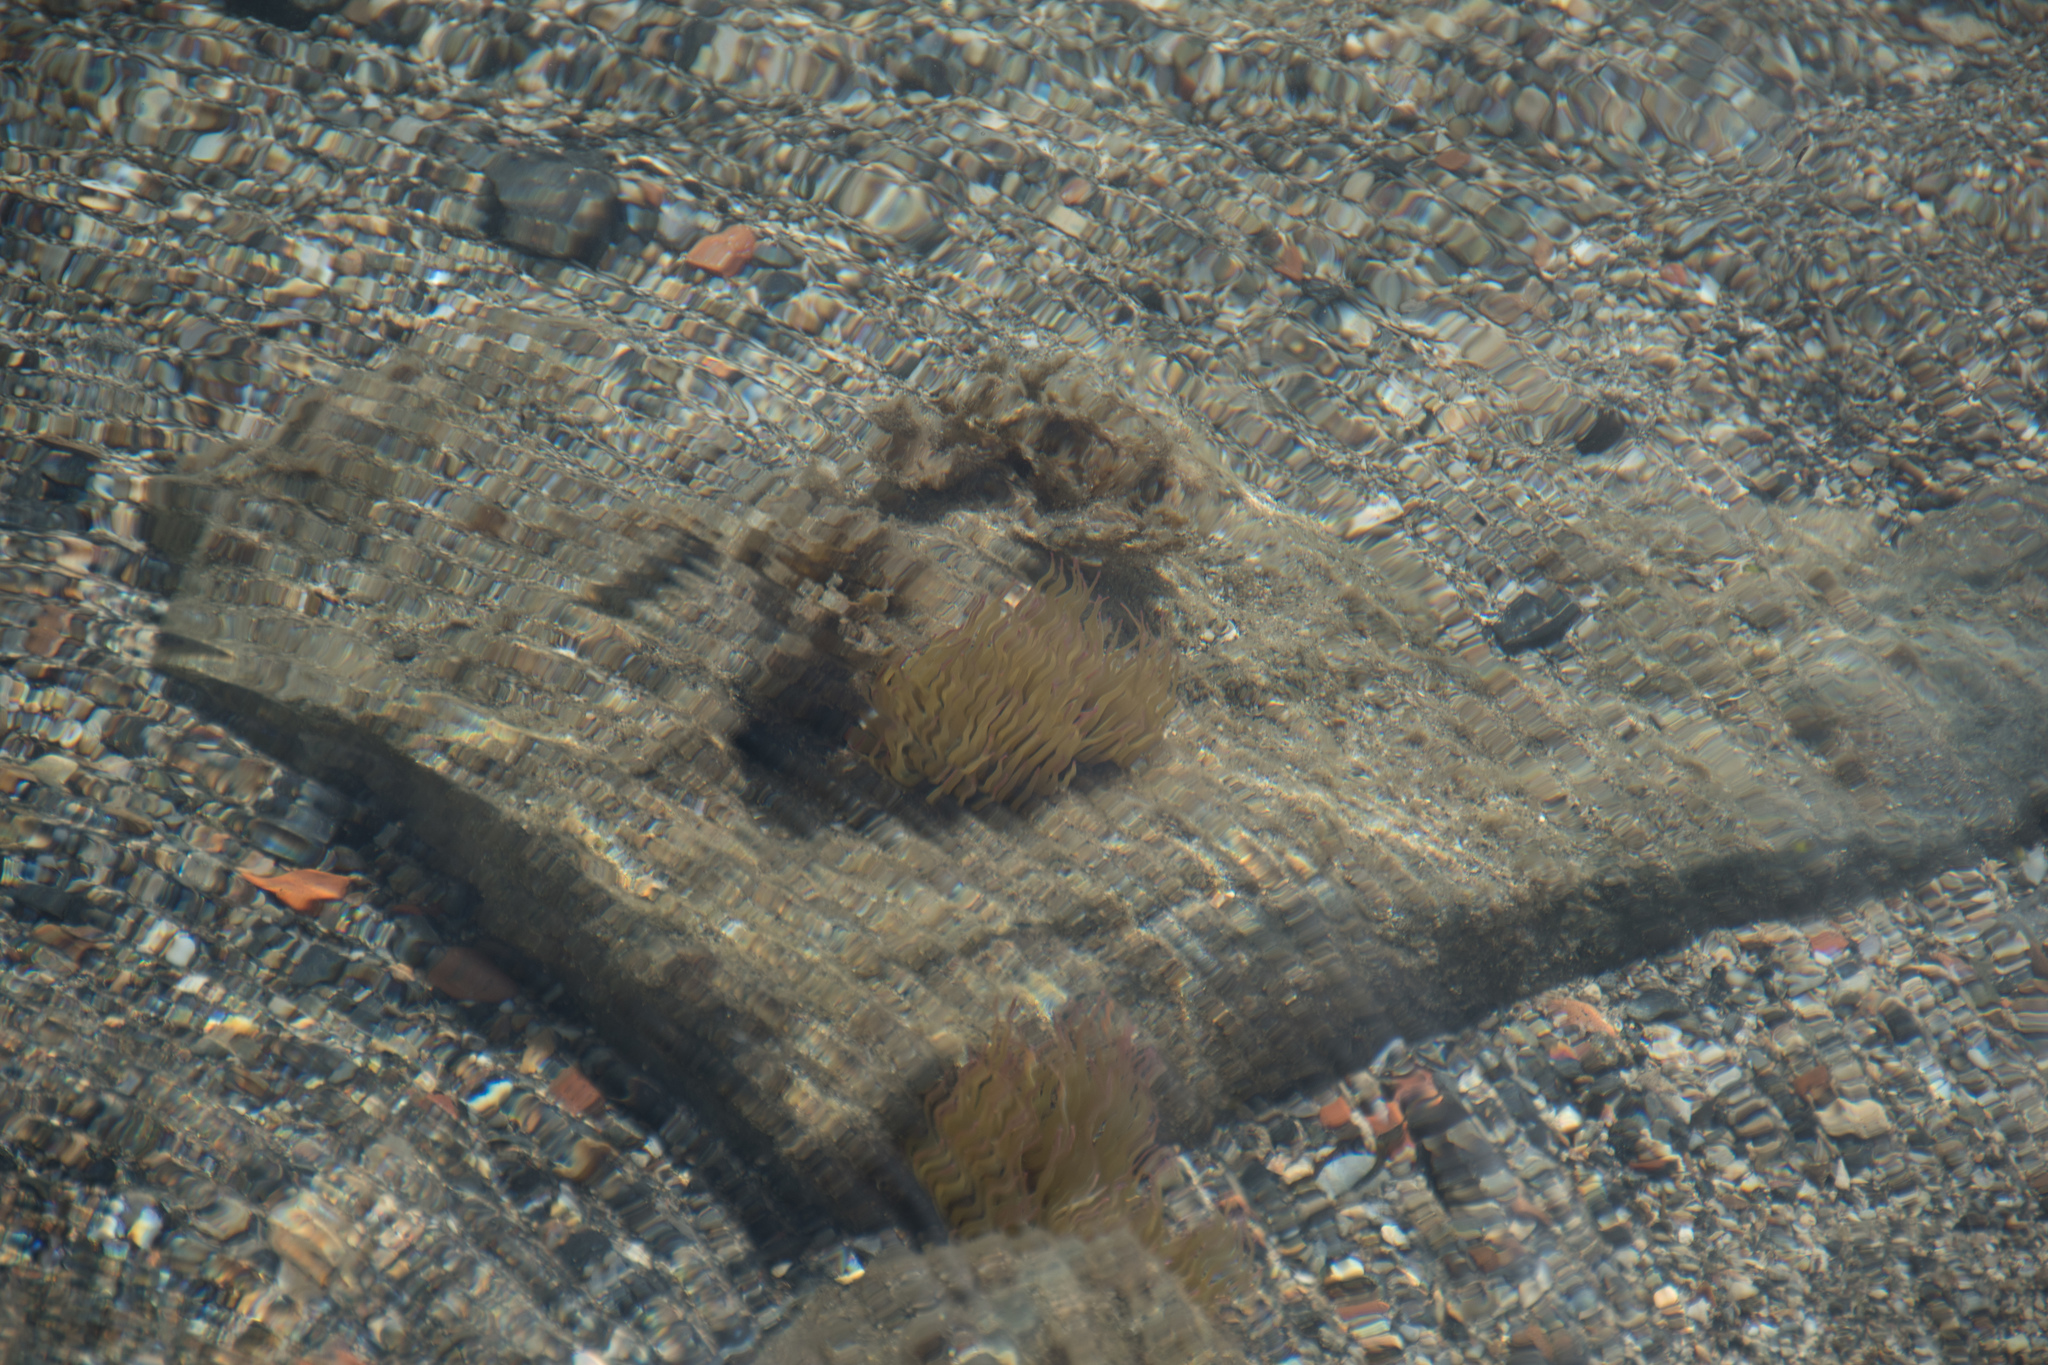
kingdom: Animalia
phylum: Cnidaria
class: Anthozoa
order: Actiniaria
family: Actiniidae
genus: Anemonia
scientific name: Anemonia viridis
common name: Snakelocks anemone
